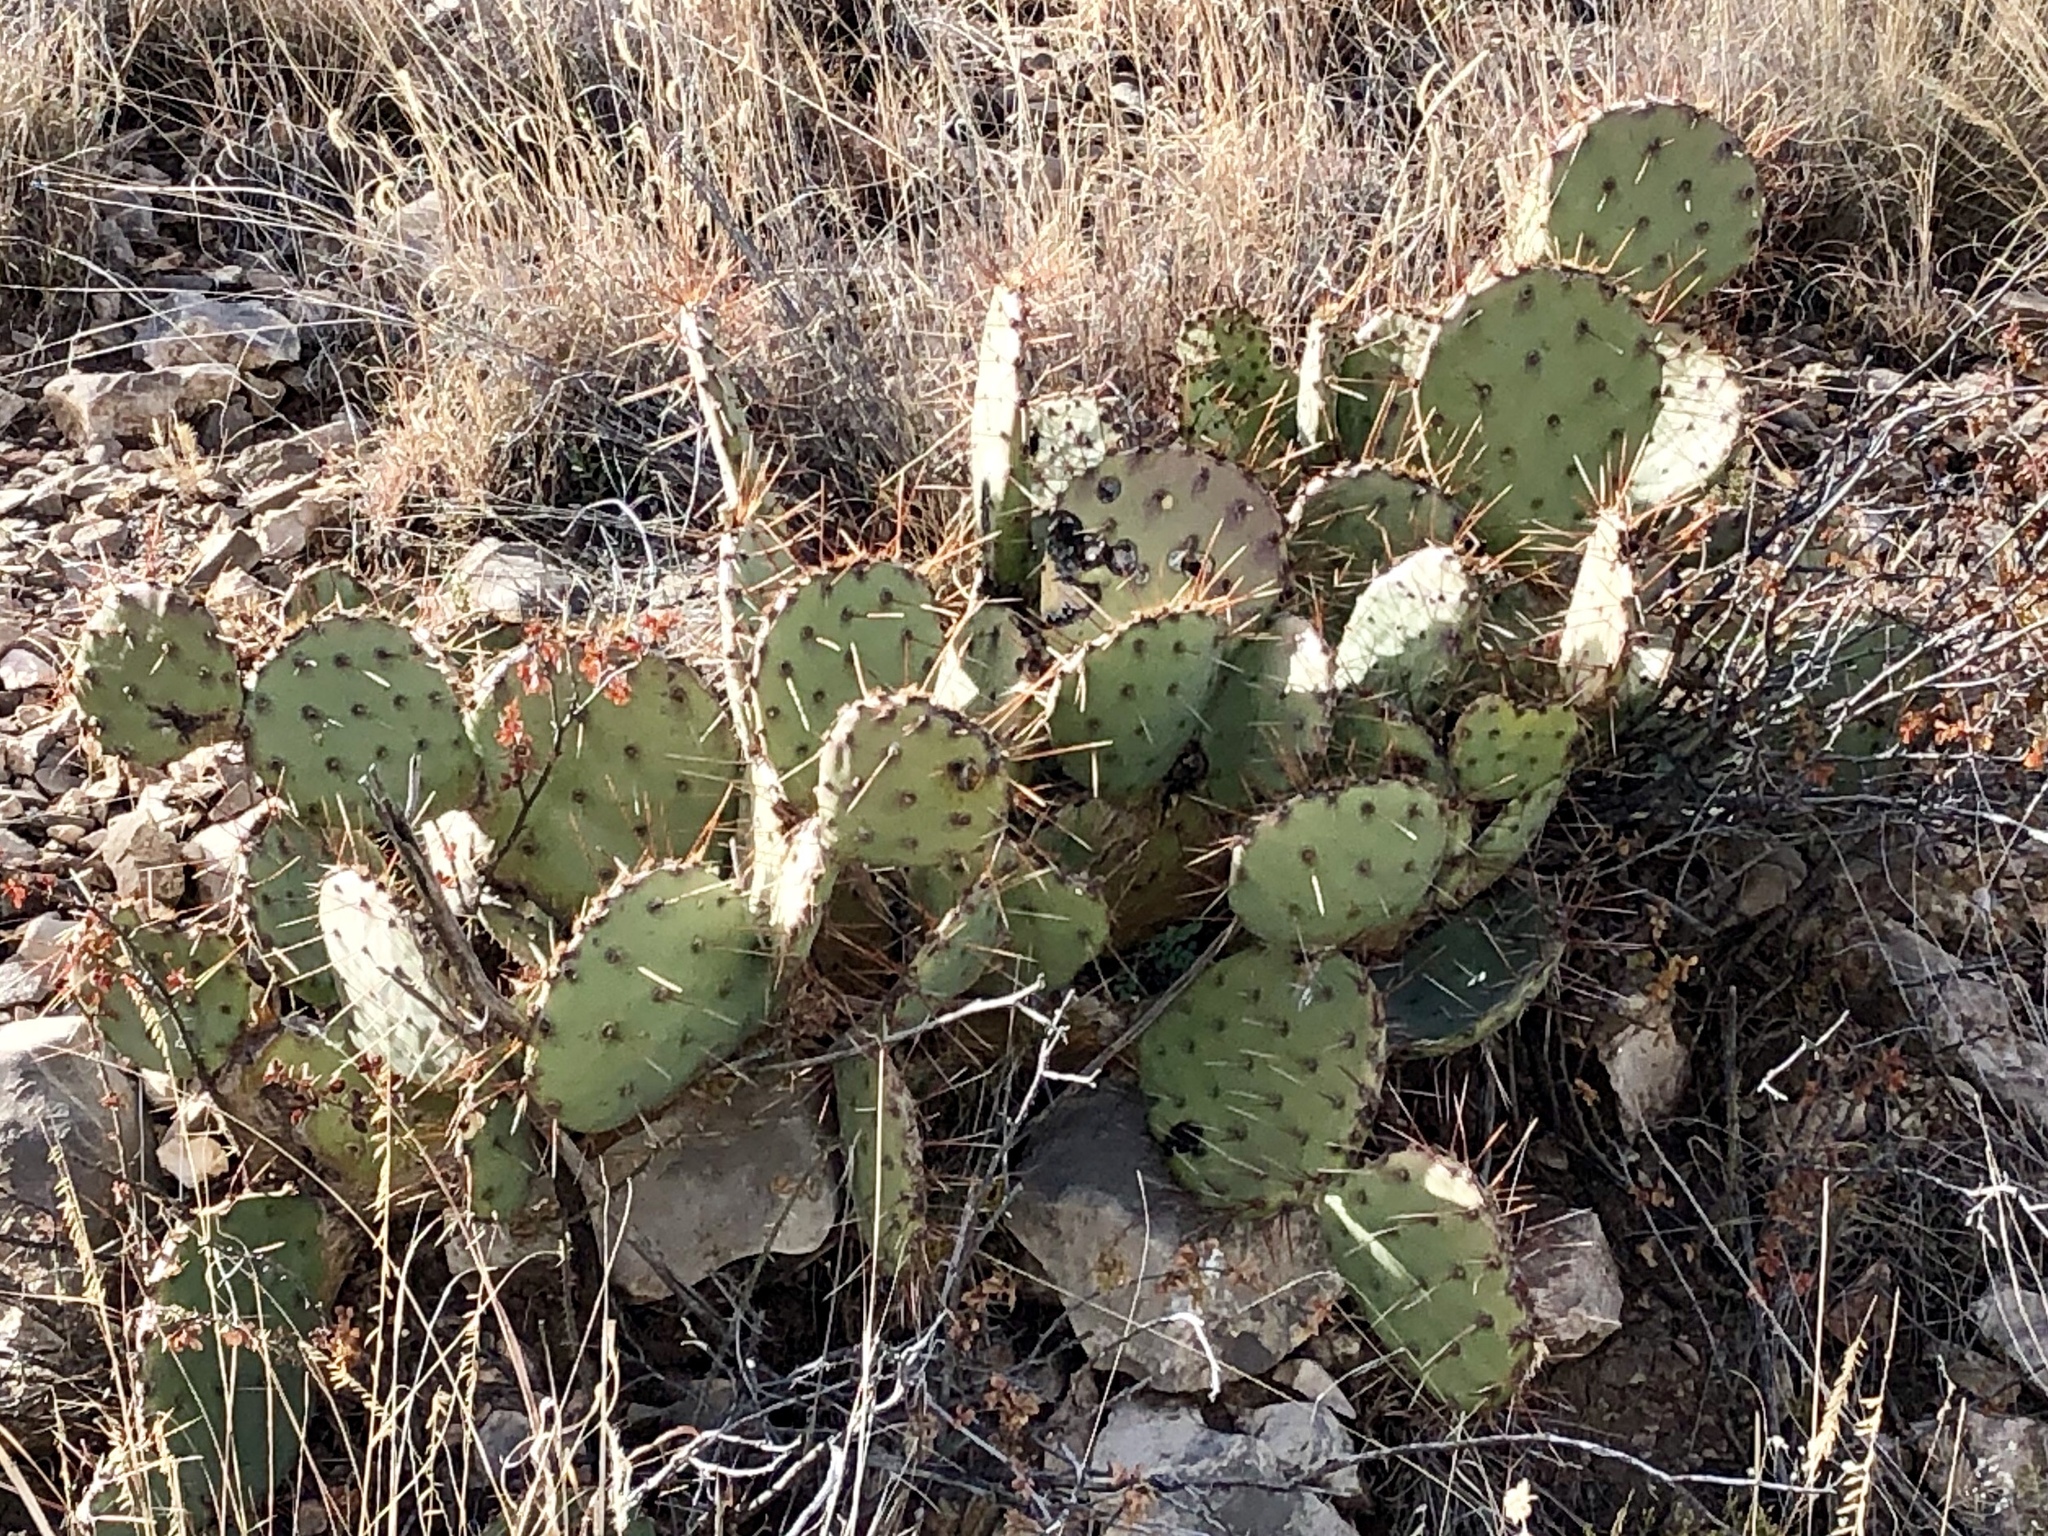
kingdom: Plantae
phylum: Tracheophyta
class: Magnoliopsida
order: Caryophyllales
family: Cactaceae
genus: Opuntia
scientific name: Opuntia phaeacantha
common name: New mexico prickly-pear
